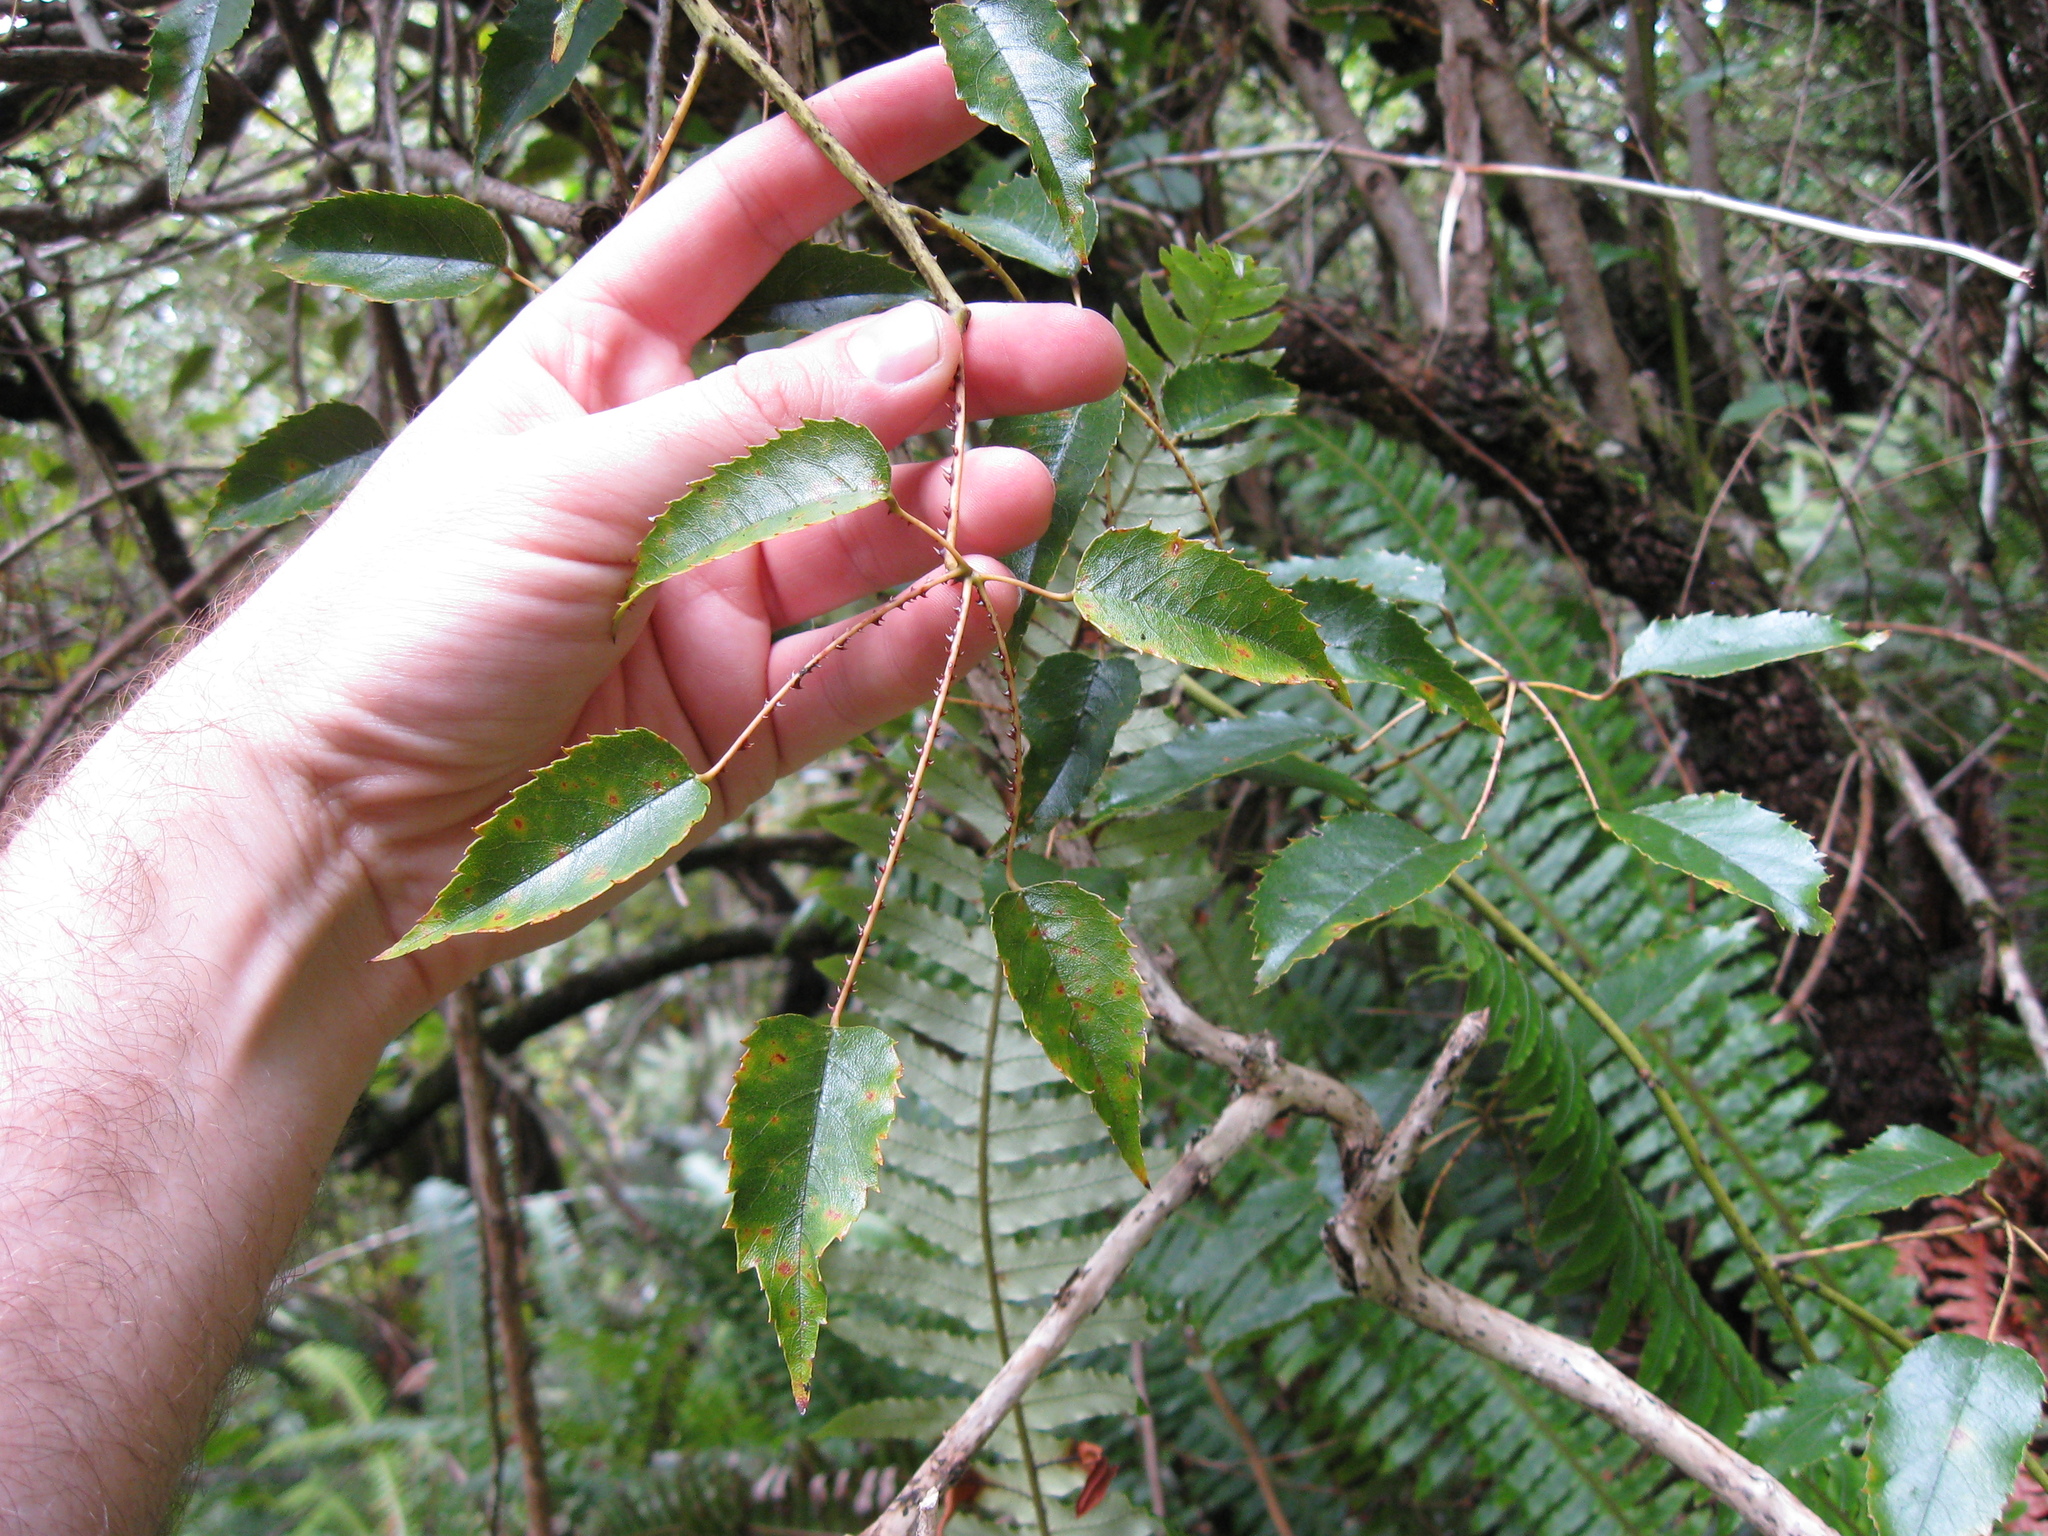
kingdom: Plantae
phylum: Tracheophyta
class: Magnoliopsida
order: Rosales
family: Rosaceae
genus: Rubus
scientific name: Rubus australis
